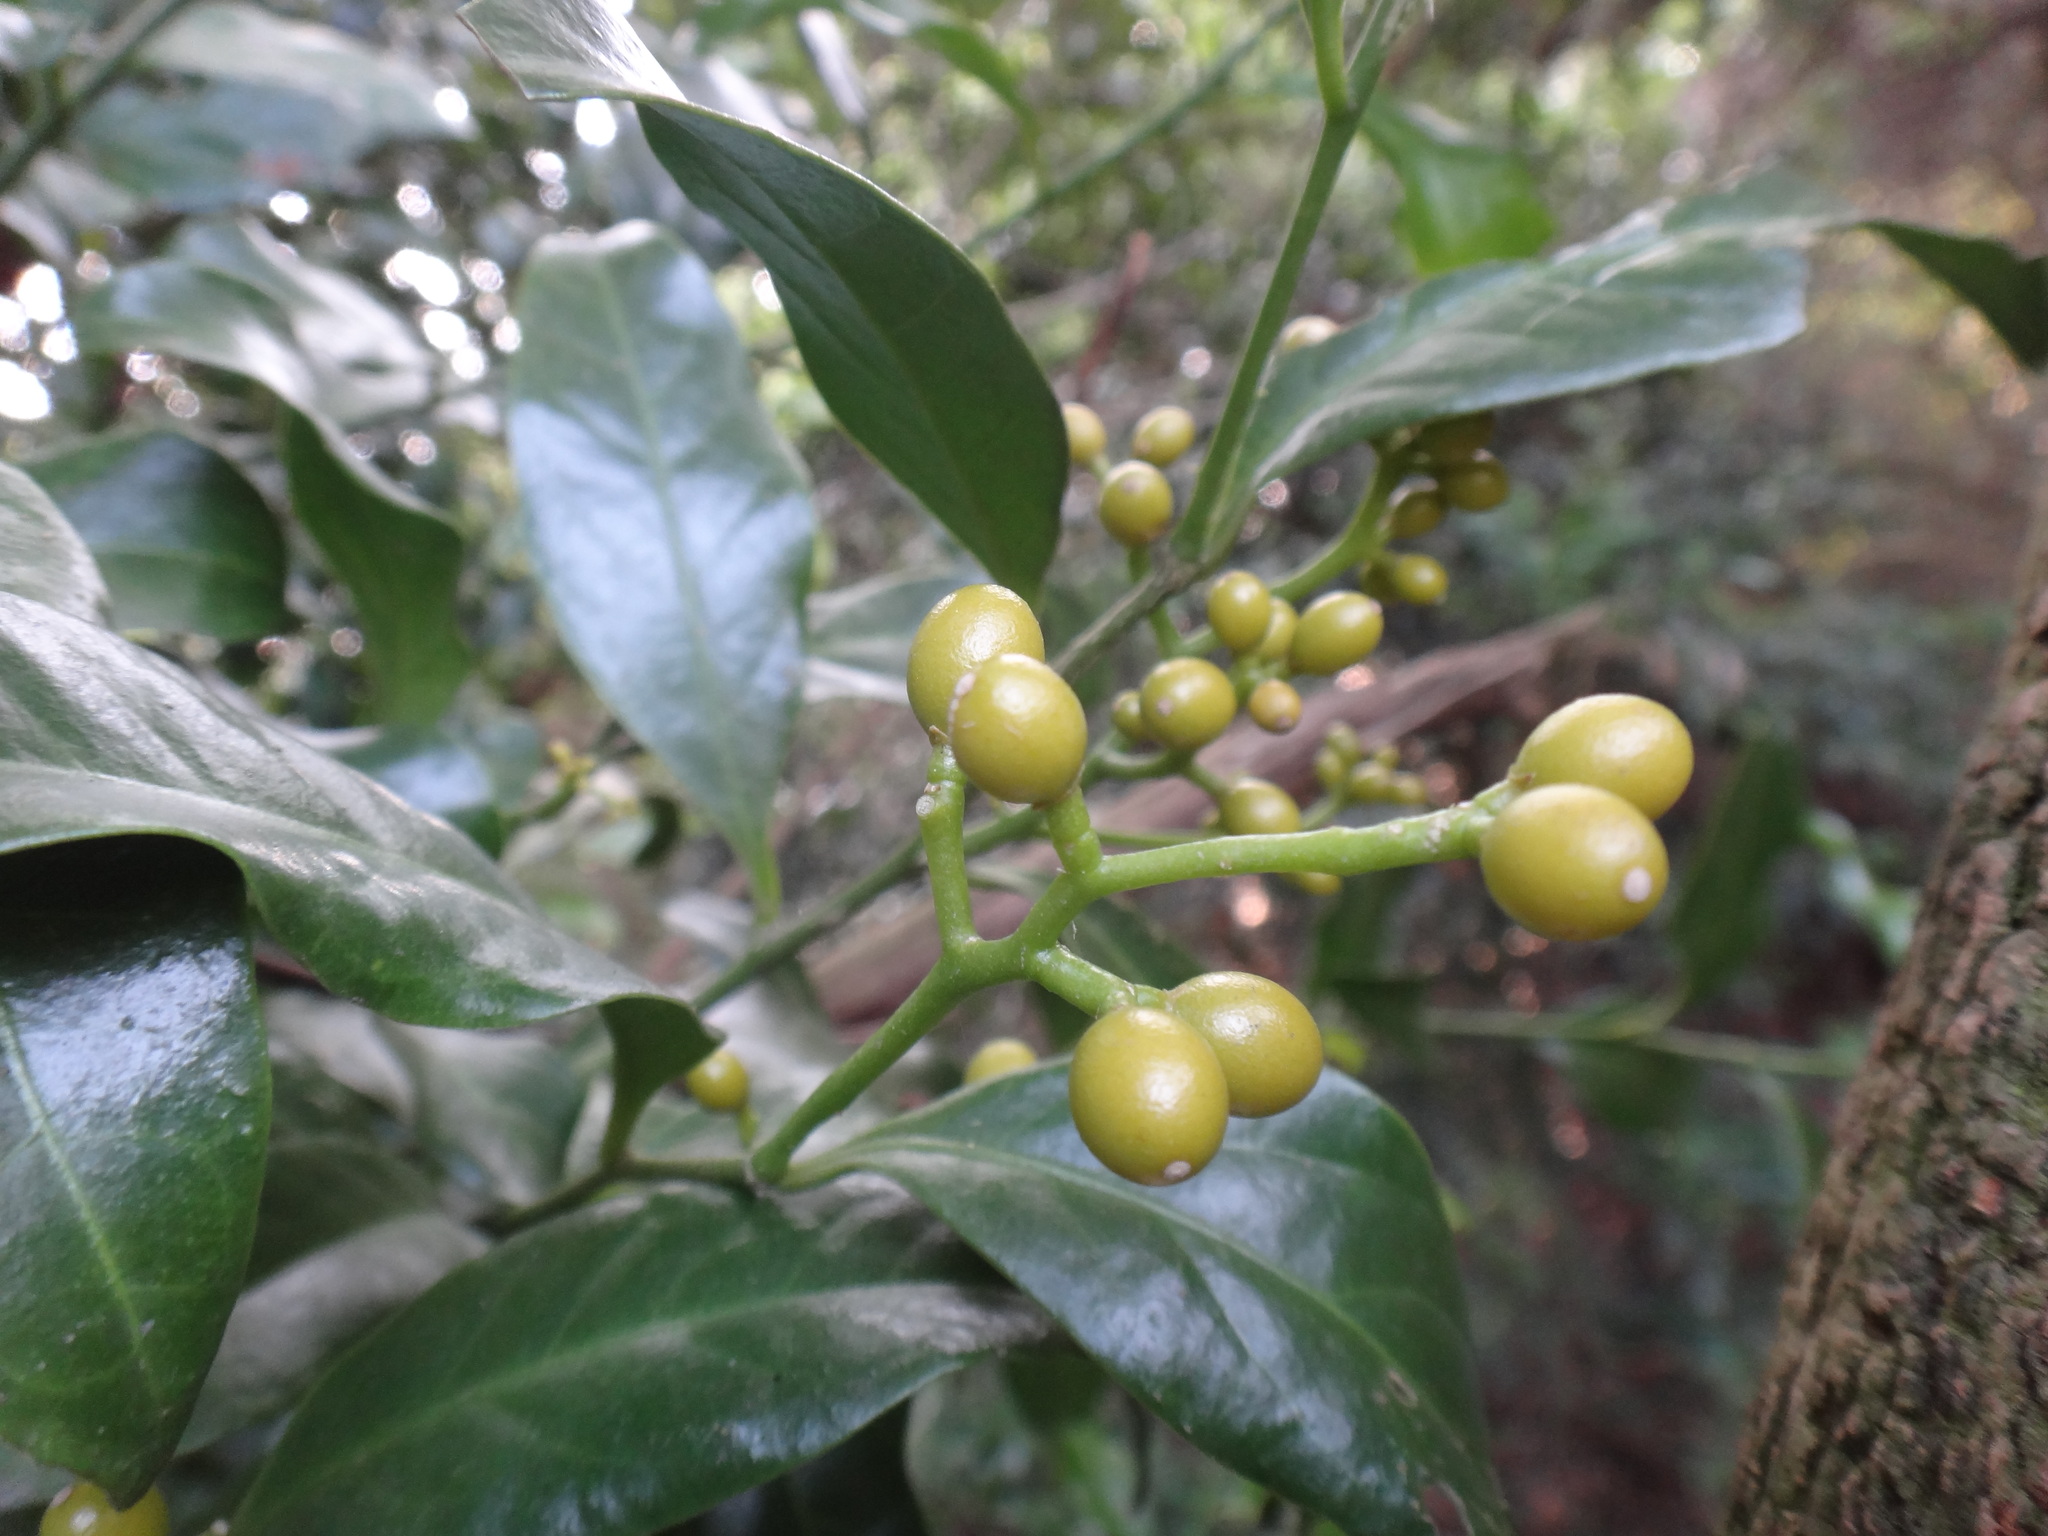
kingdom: Plantae
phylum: Tracheophyta
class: Magnoliopsida
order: Santalales
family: Opiliaceae
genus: Champereia
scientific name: Champereia manillana
